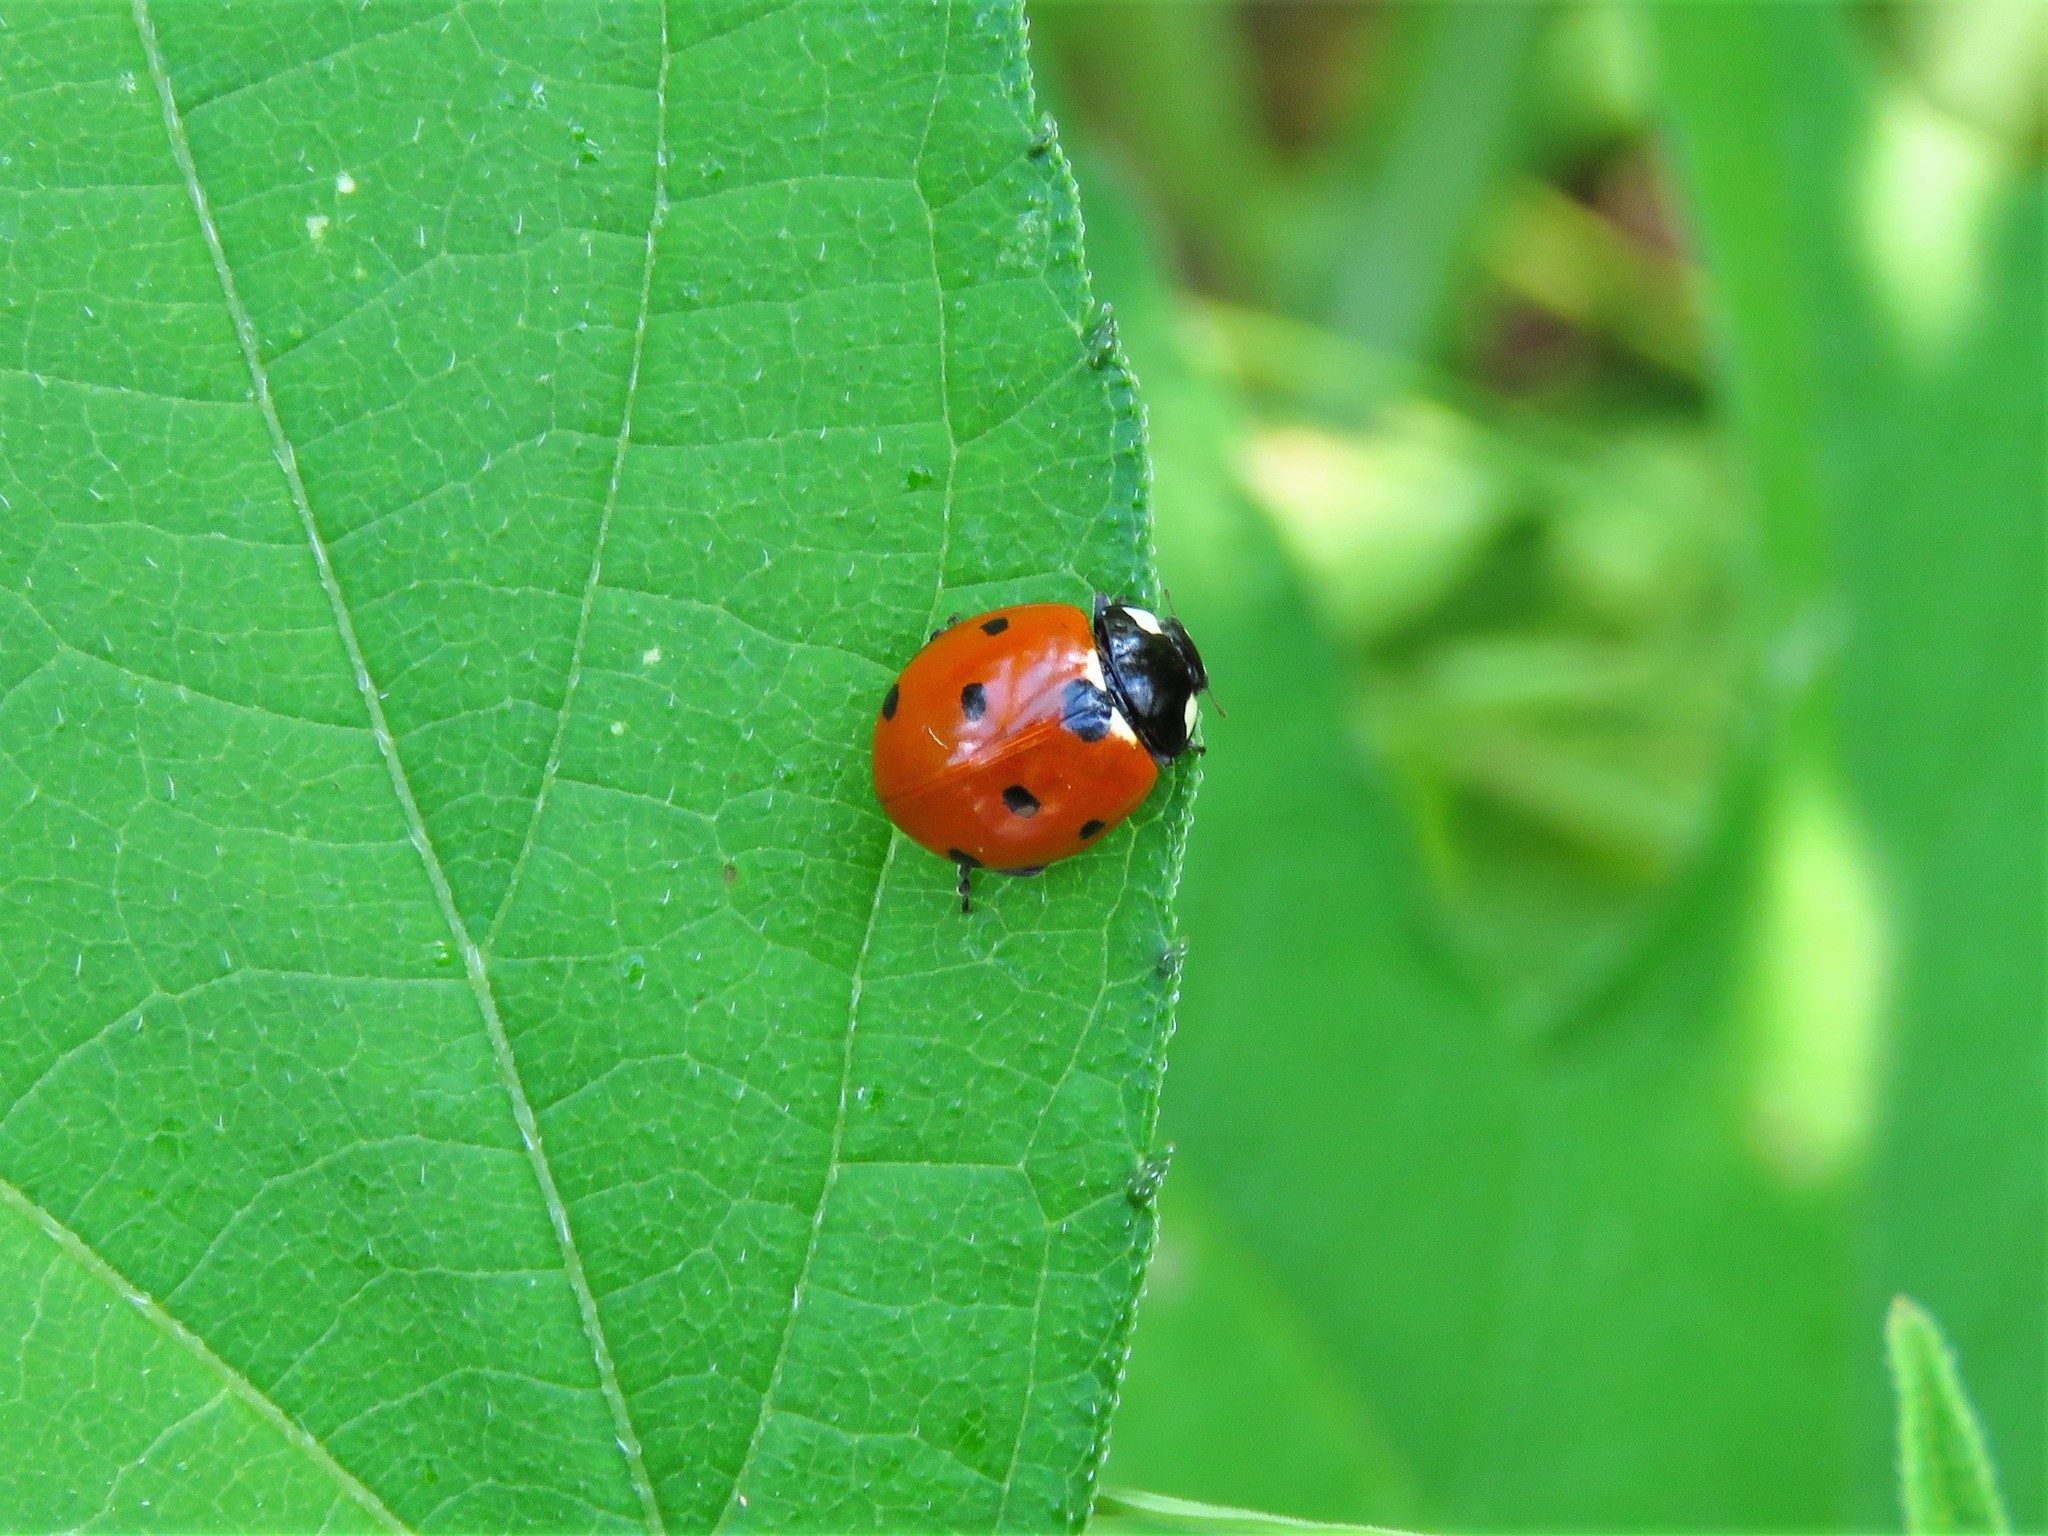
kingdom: Animalia
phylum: Arthropoda
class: Insecta
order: Coleoptera
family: Coccinellidae
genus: Coccinella
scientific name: Coccinella septempunctata
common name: Sevenspotted lady beetle
